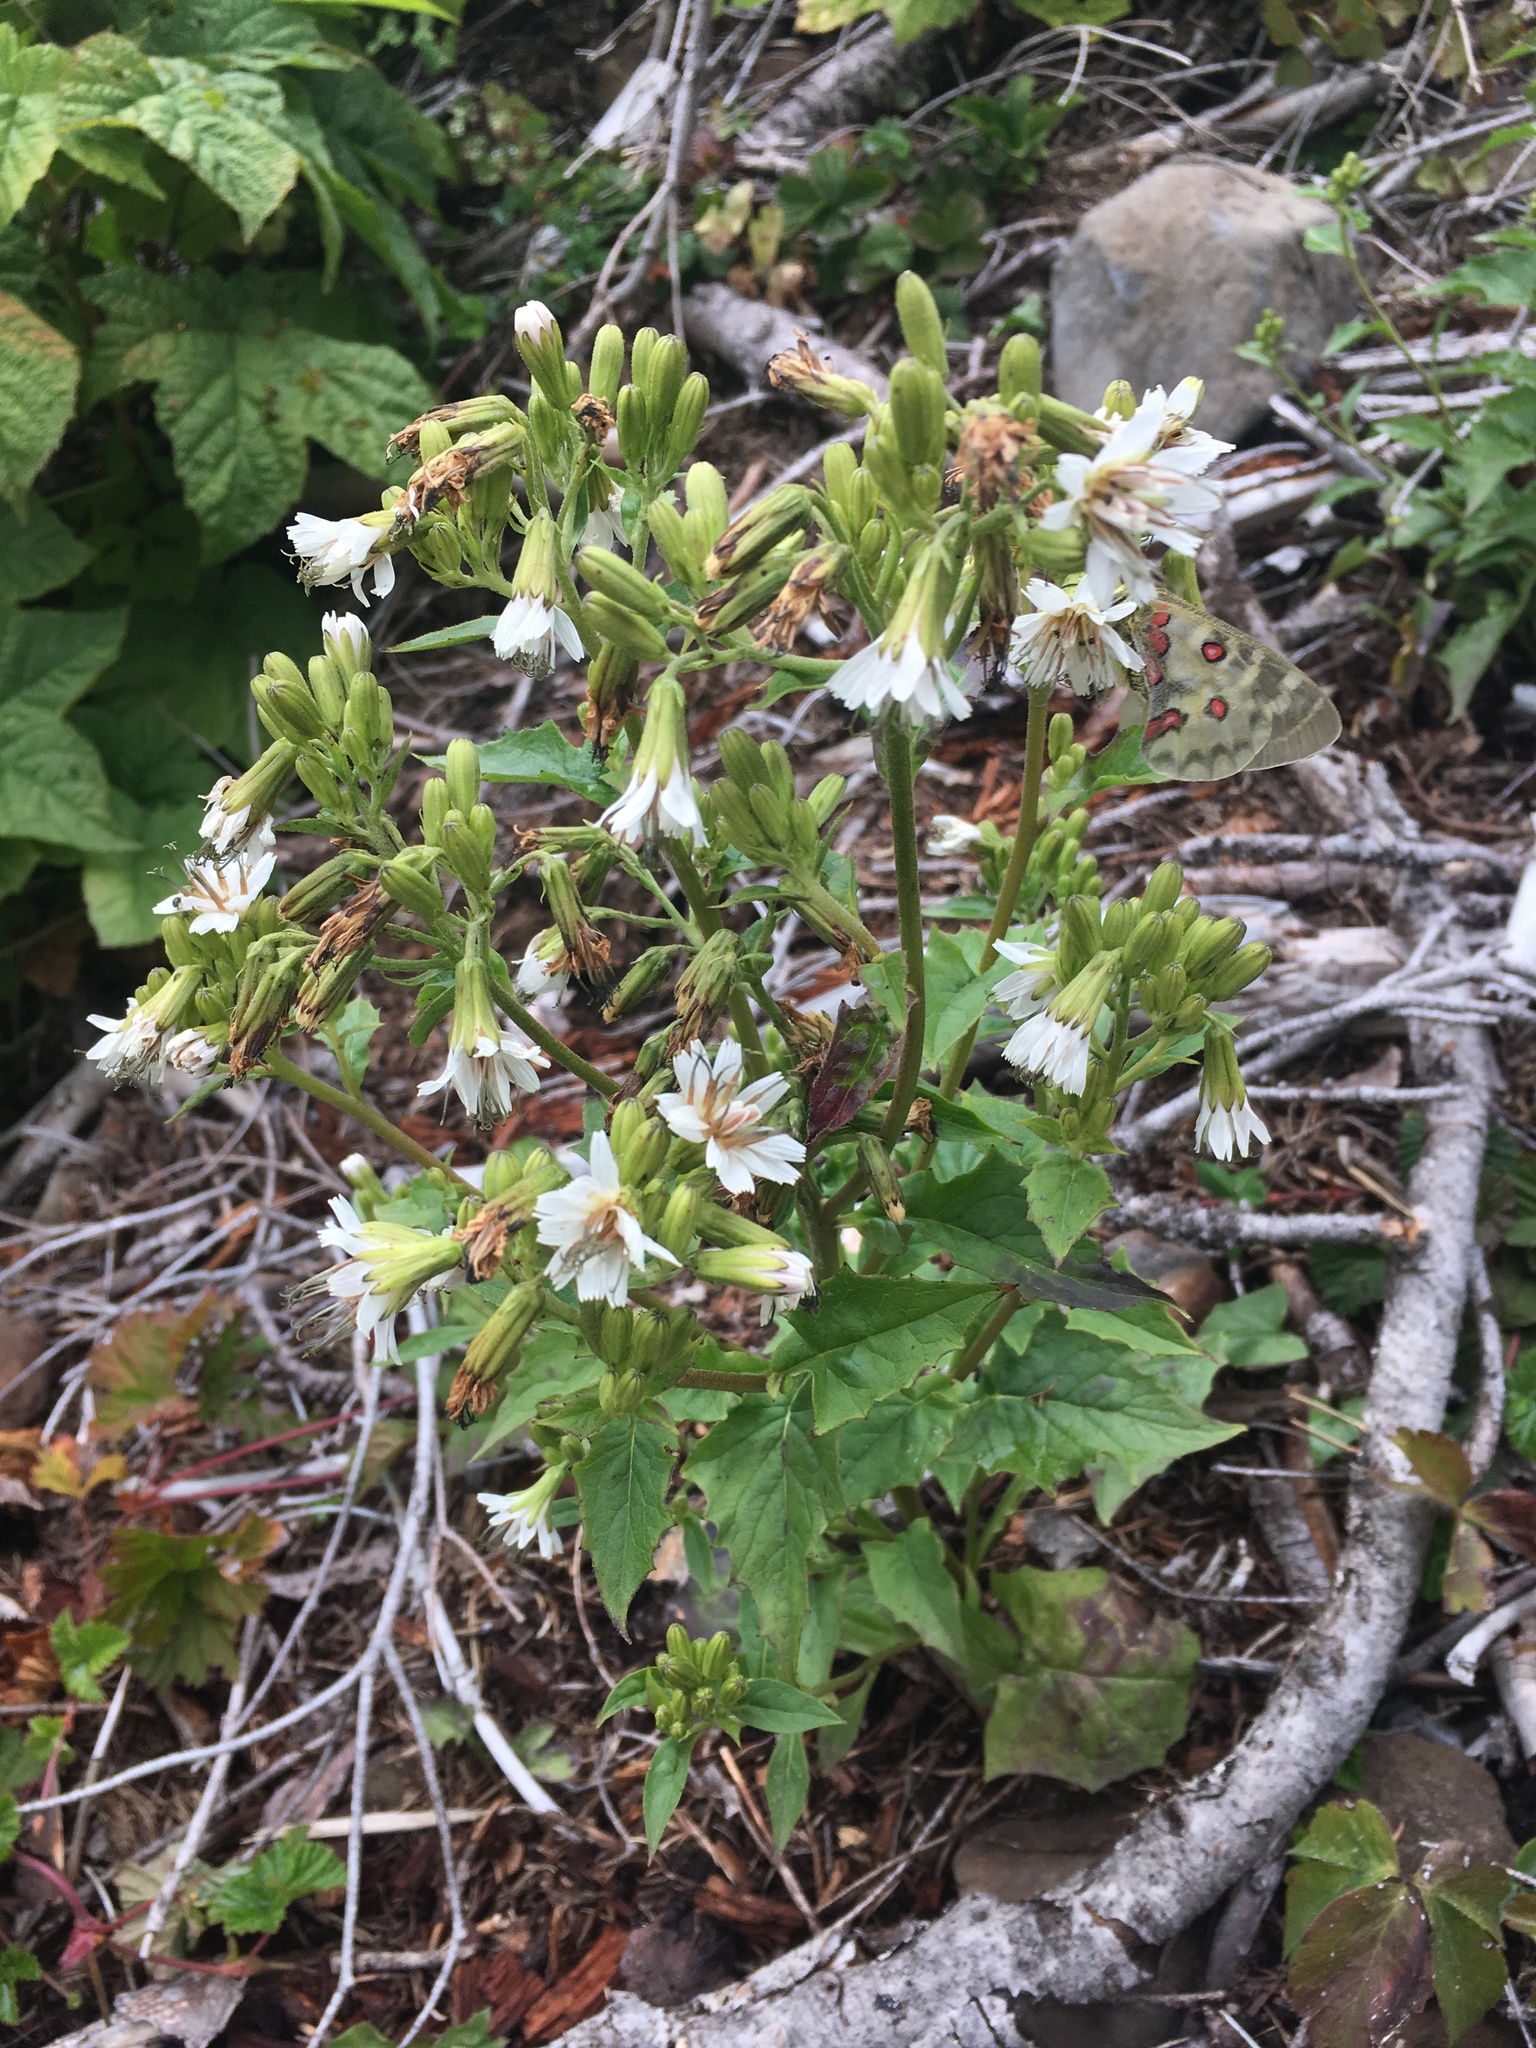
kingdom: Plantae
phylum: Tracheophyta
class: Magnoliopsida
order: Asterales
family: Asteraceae
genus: Nabalus
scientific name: Nabalus hastatus
